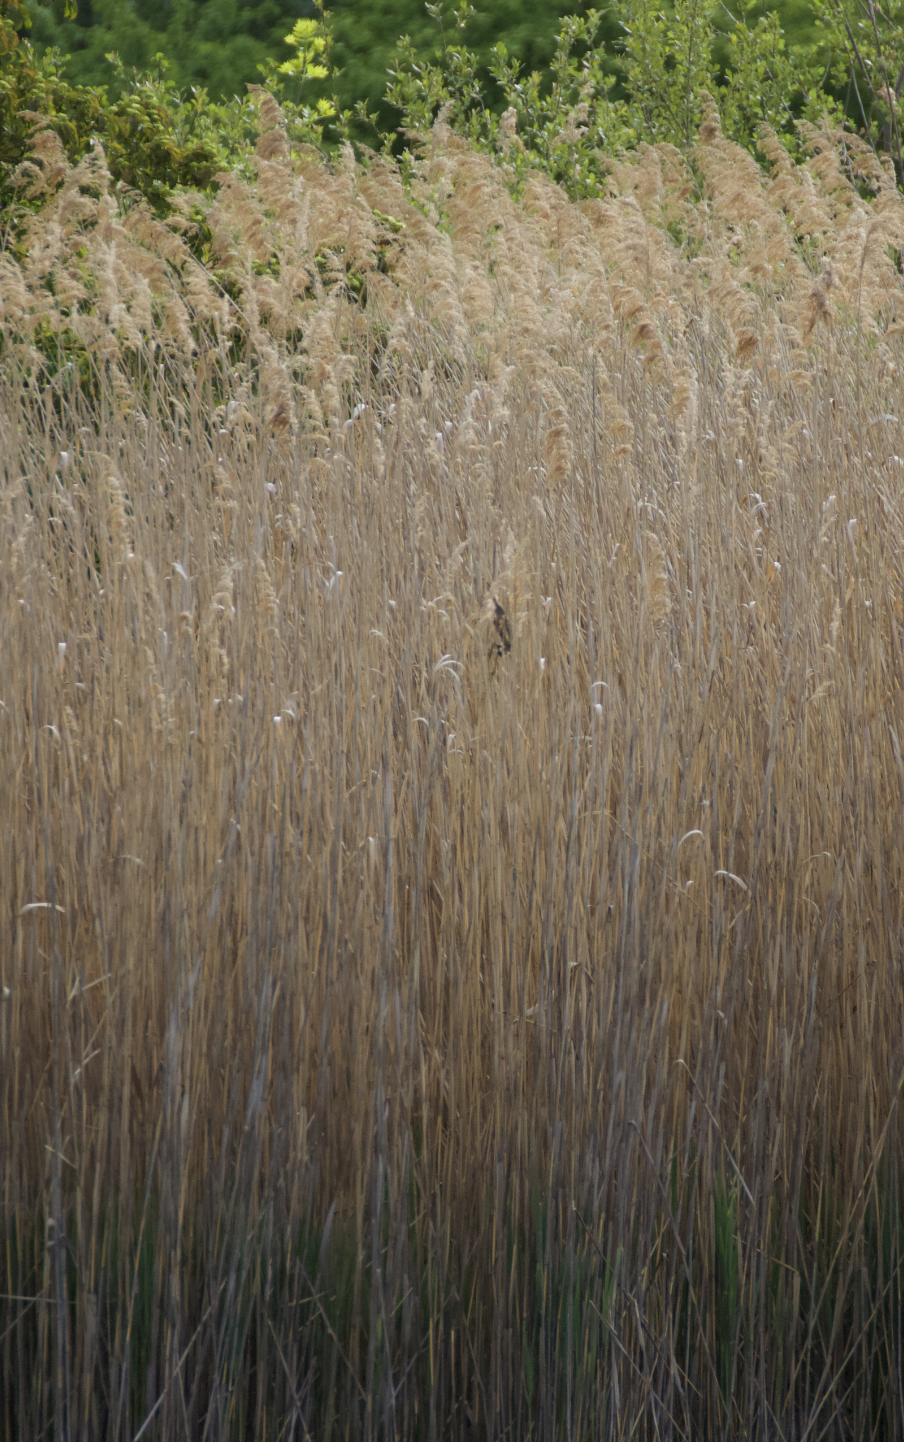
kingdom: Animalia
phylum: Chordata
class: Aves
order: Pelecaniformes
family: Ardeidae
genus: Ixobrychus
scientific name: Ixobrychus minutus
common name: Little bittern
